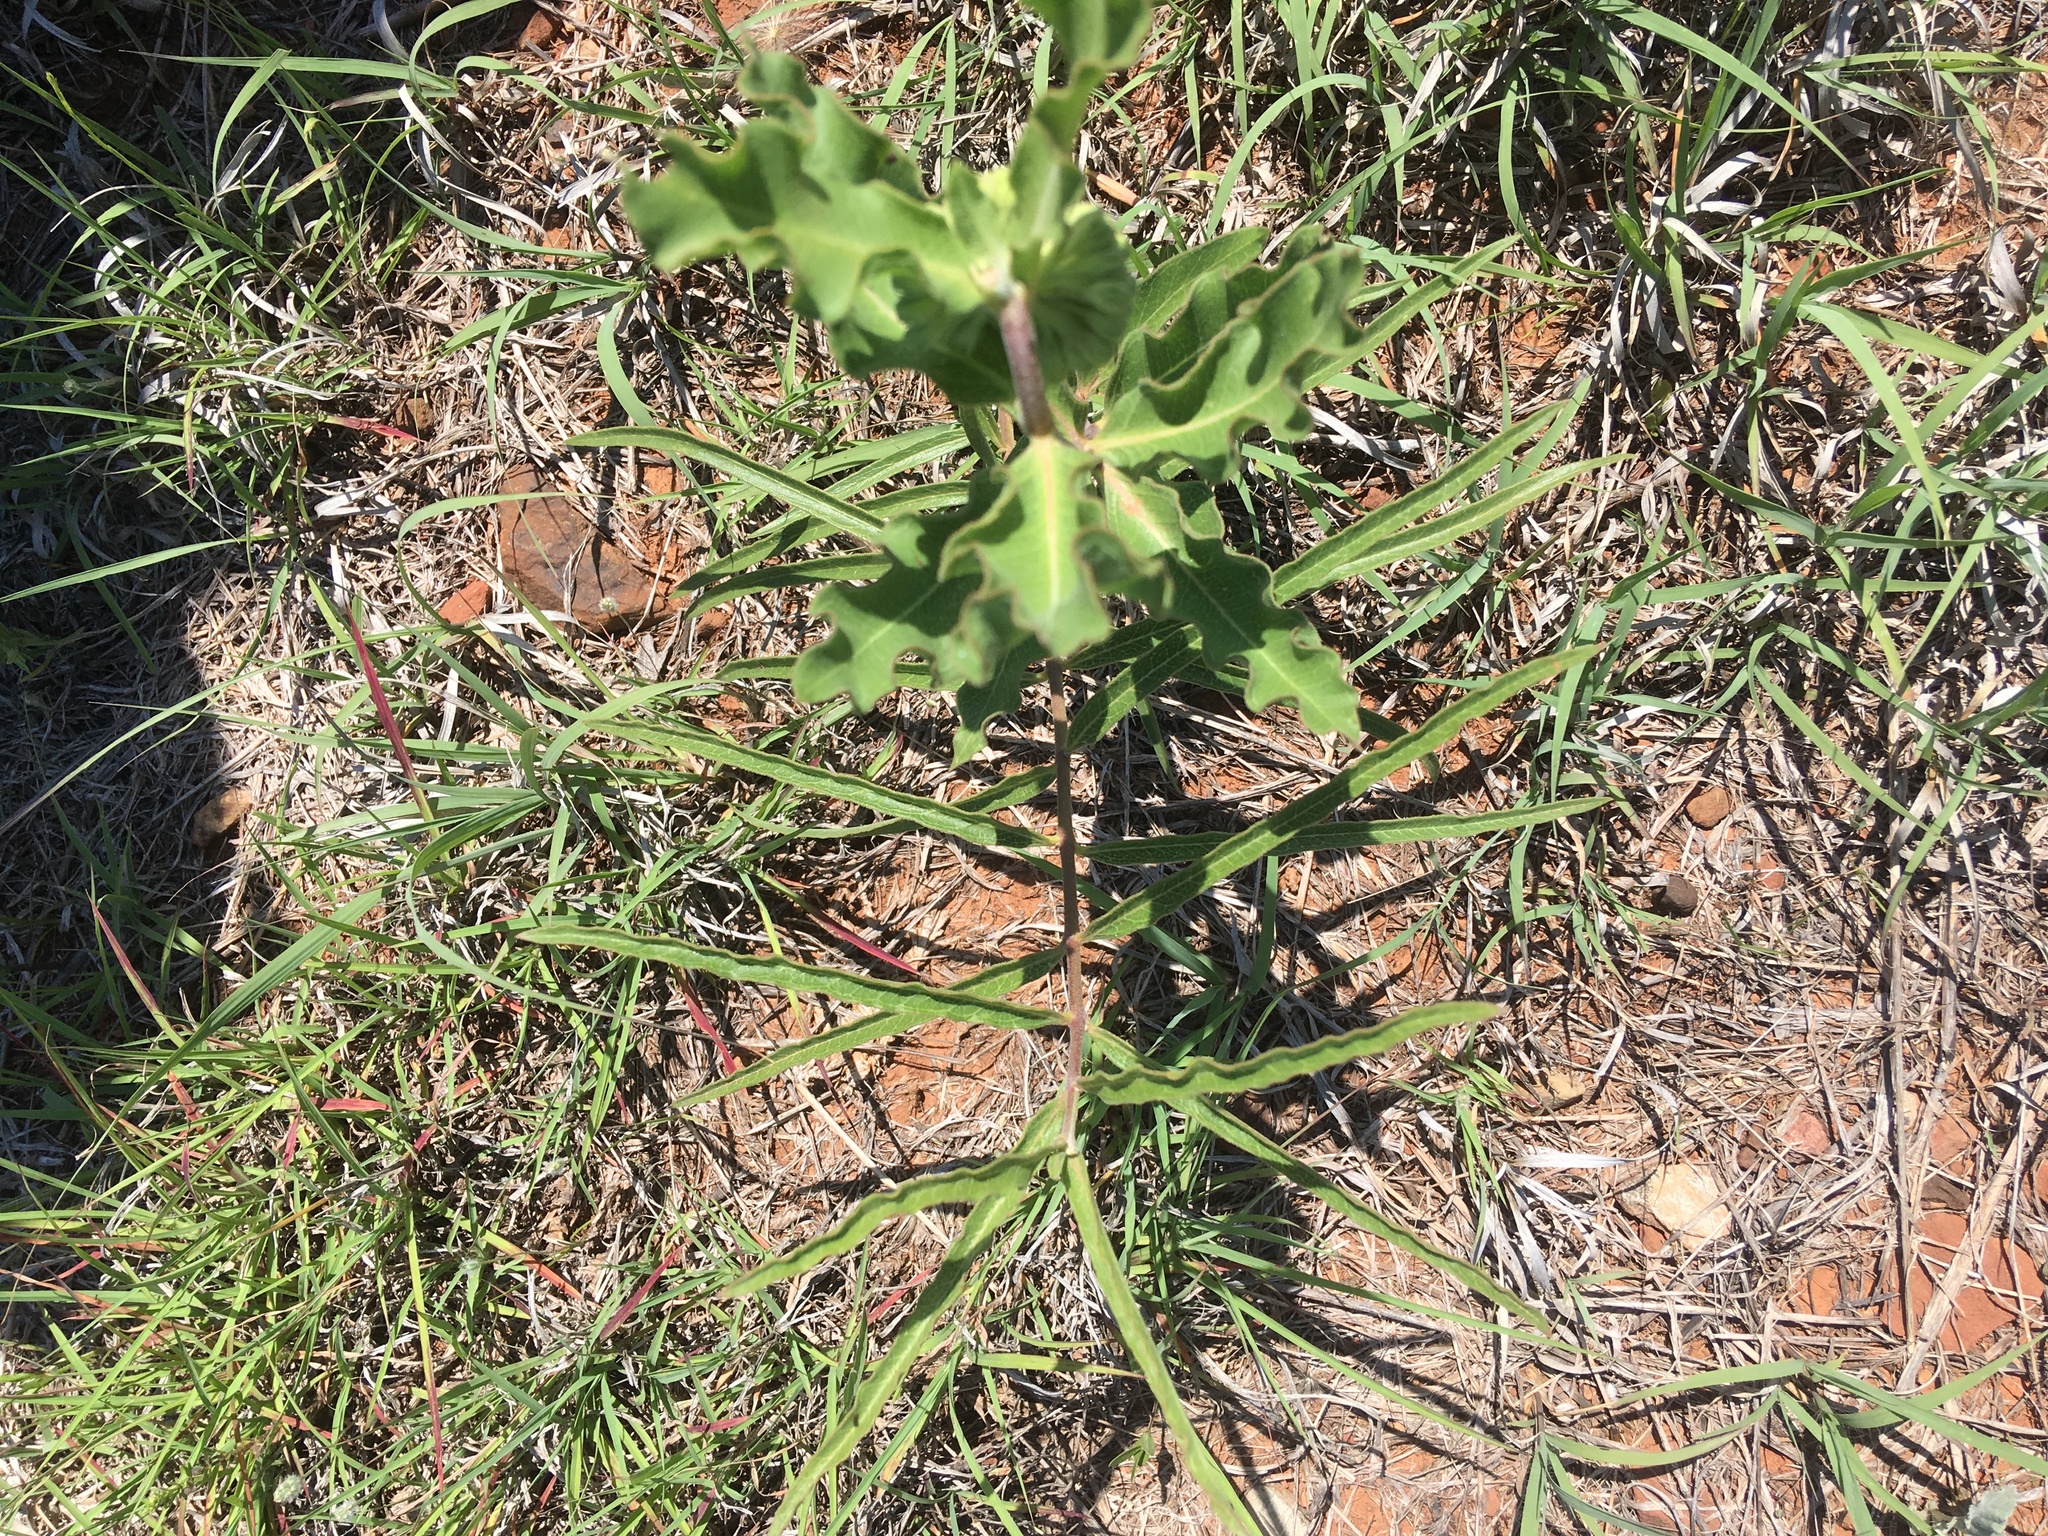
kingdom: Plantae
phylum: Tracheophyta
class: Magnoliopsida
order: Gentianales
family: Apocynaceae
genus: Asclepias
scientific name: Asclepias viridiflora
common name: Green comet milkweed
